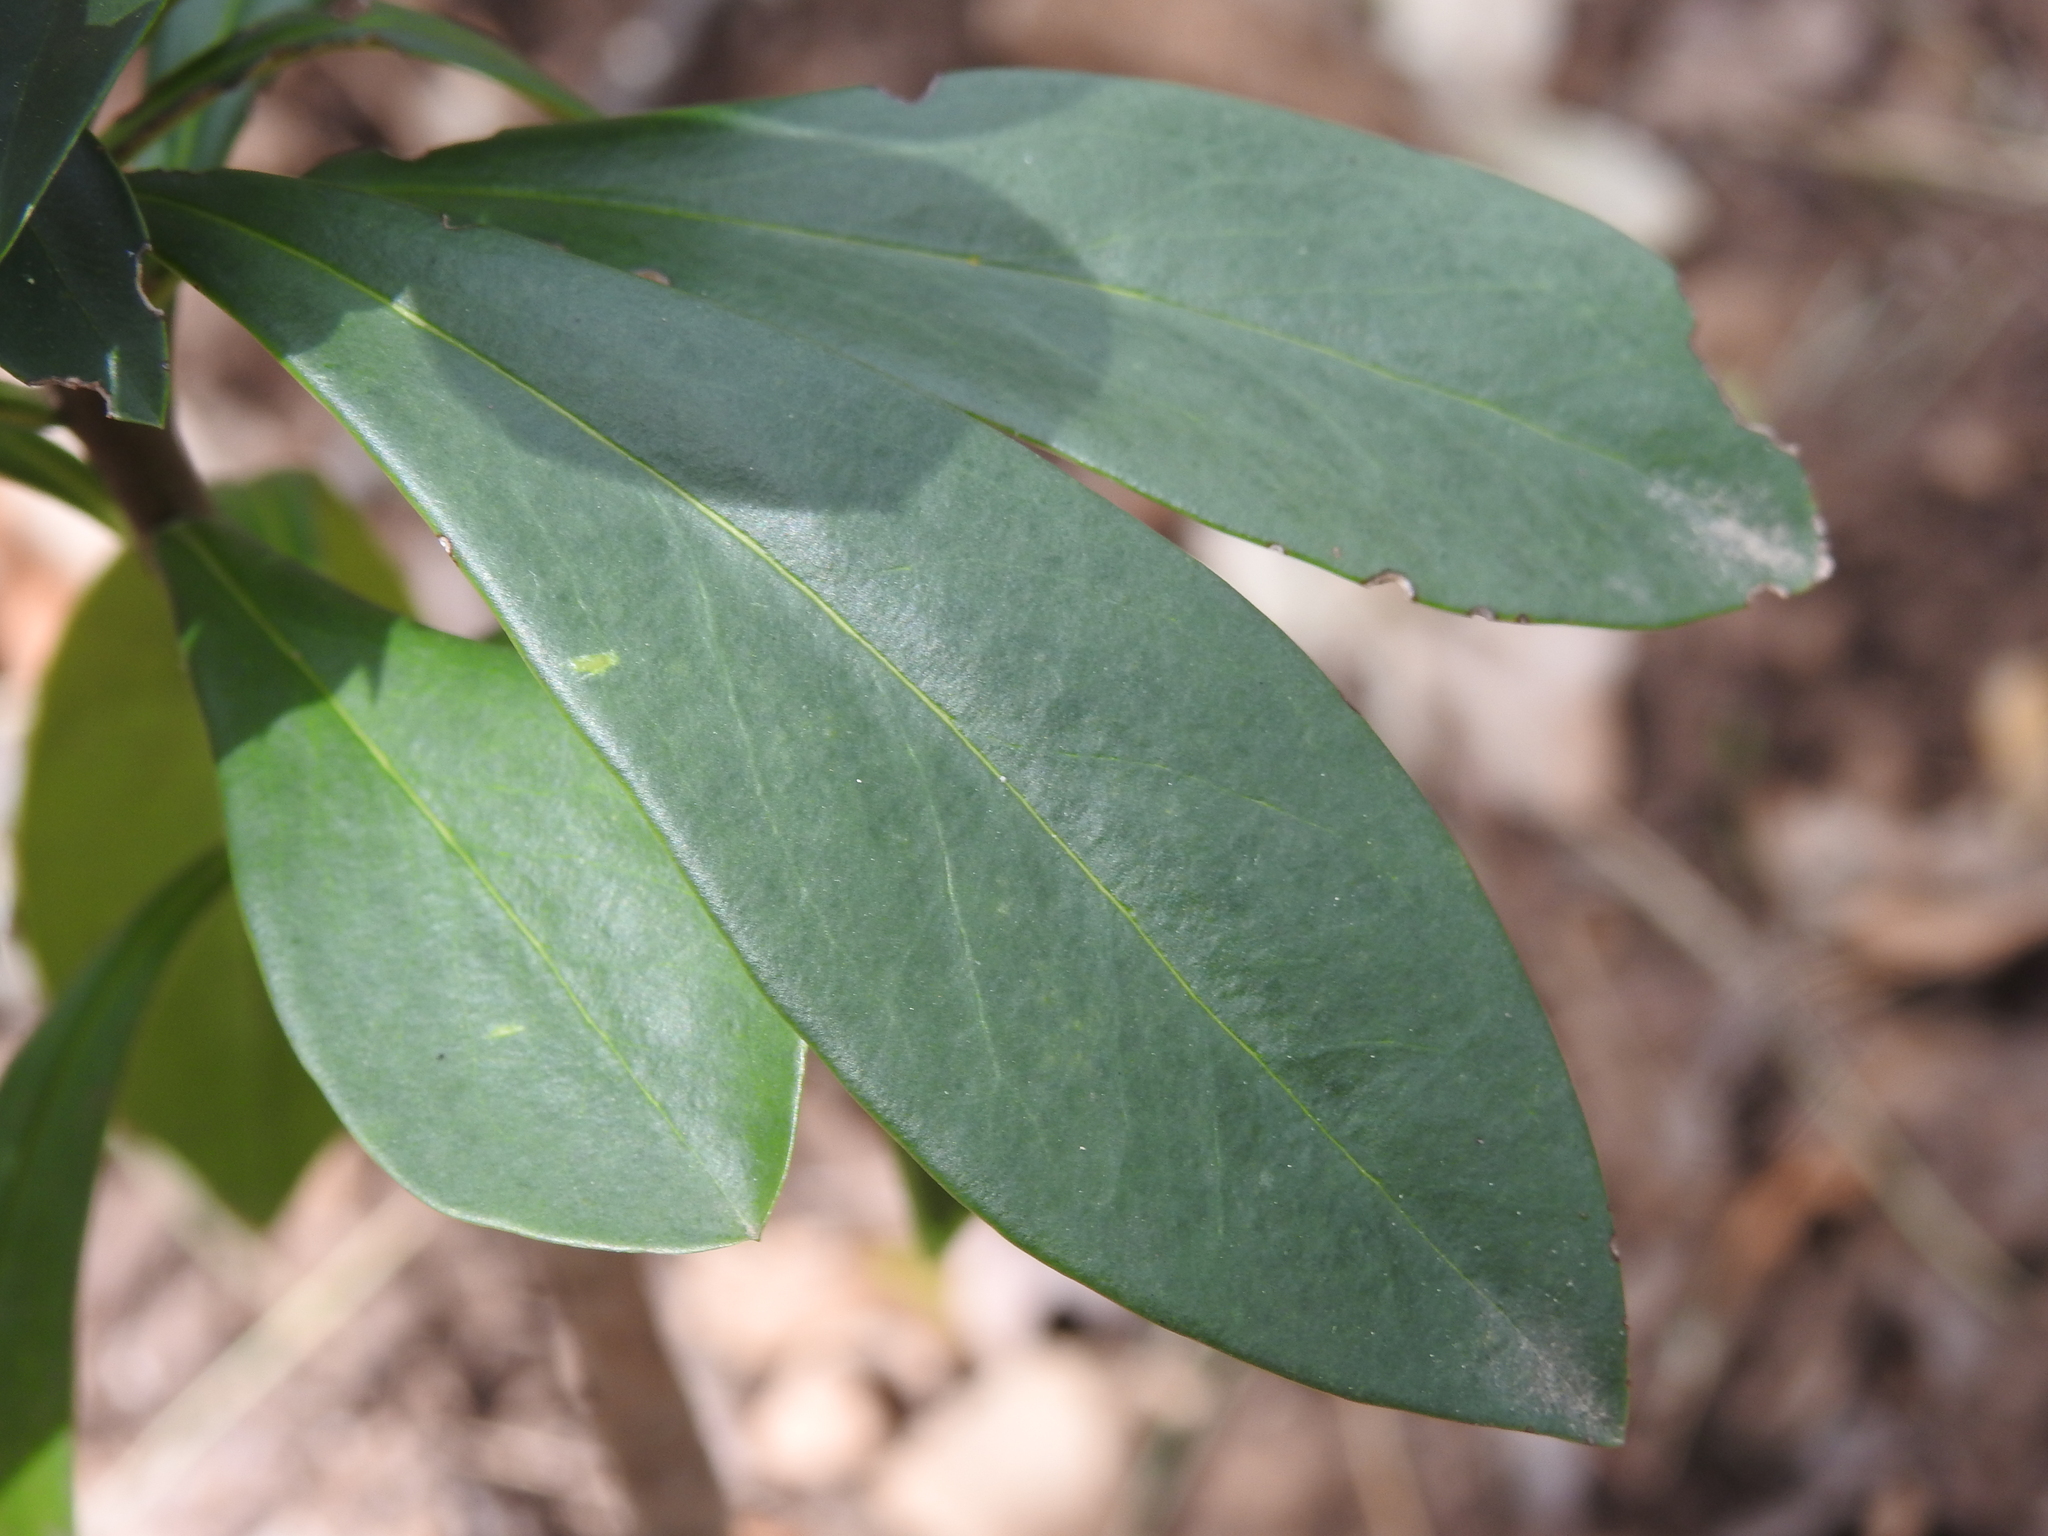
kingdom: Plantae
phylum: Tracheophyta
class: Magnoliopsida
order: Malvales
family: Thymelaeaceae
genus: Daphne
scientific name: Daphne laureola
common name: Spurge-laurel
